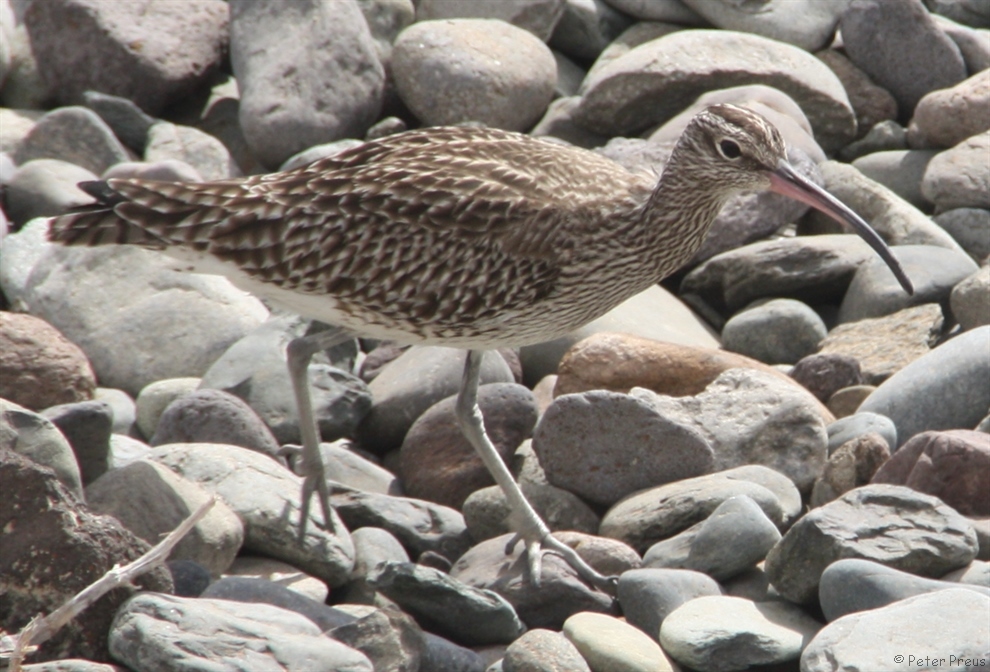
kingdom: Animalia
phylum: Chordata
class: Aves
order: Charadriiformes
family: Scolopacidae
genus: Numenius
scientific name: Numenius phaeopus
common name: Whimbrel
